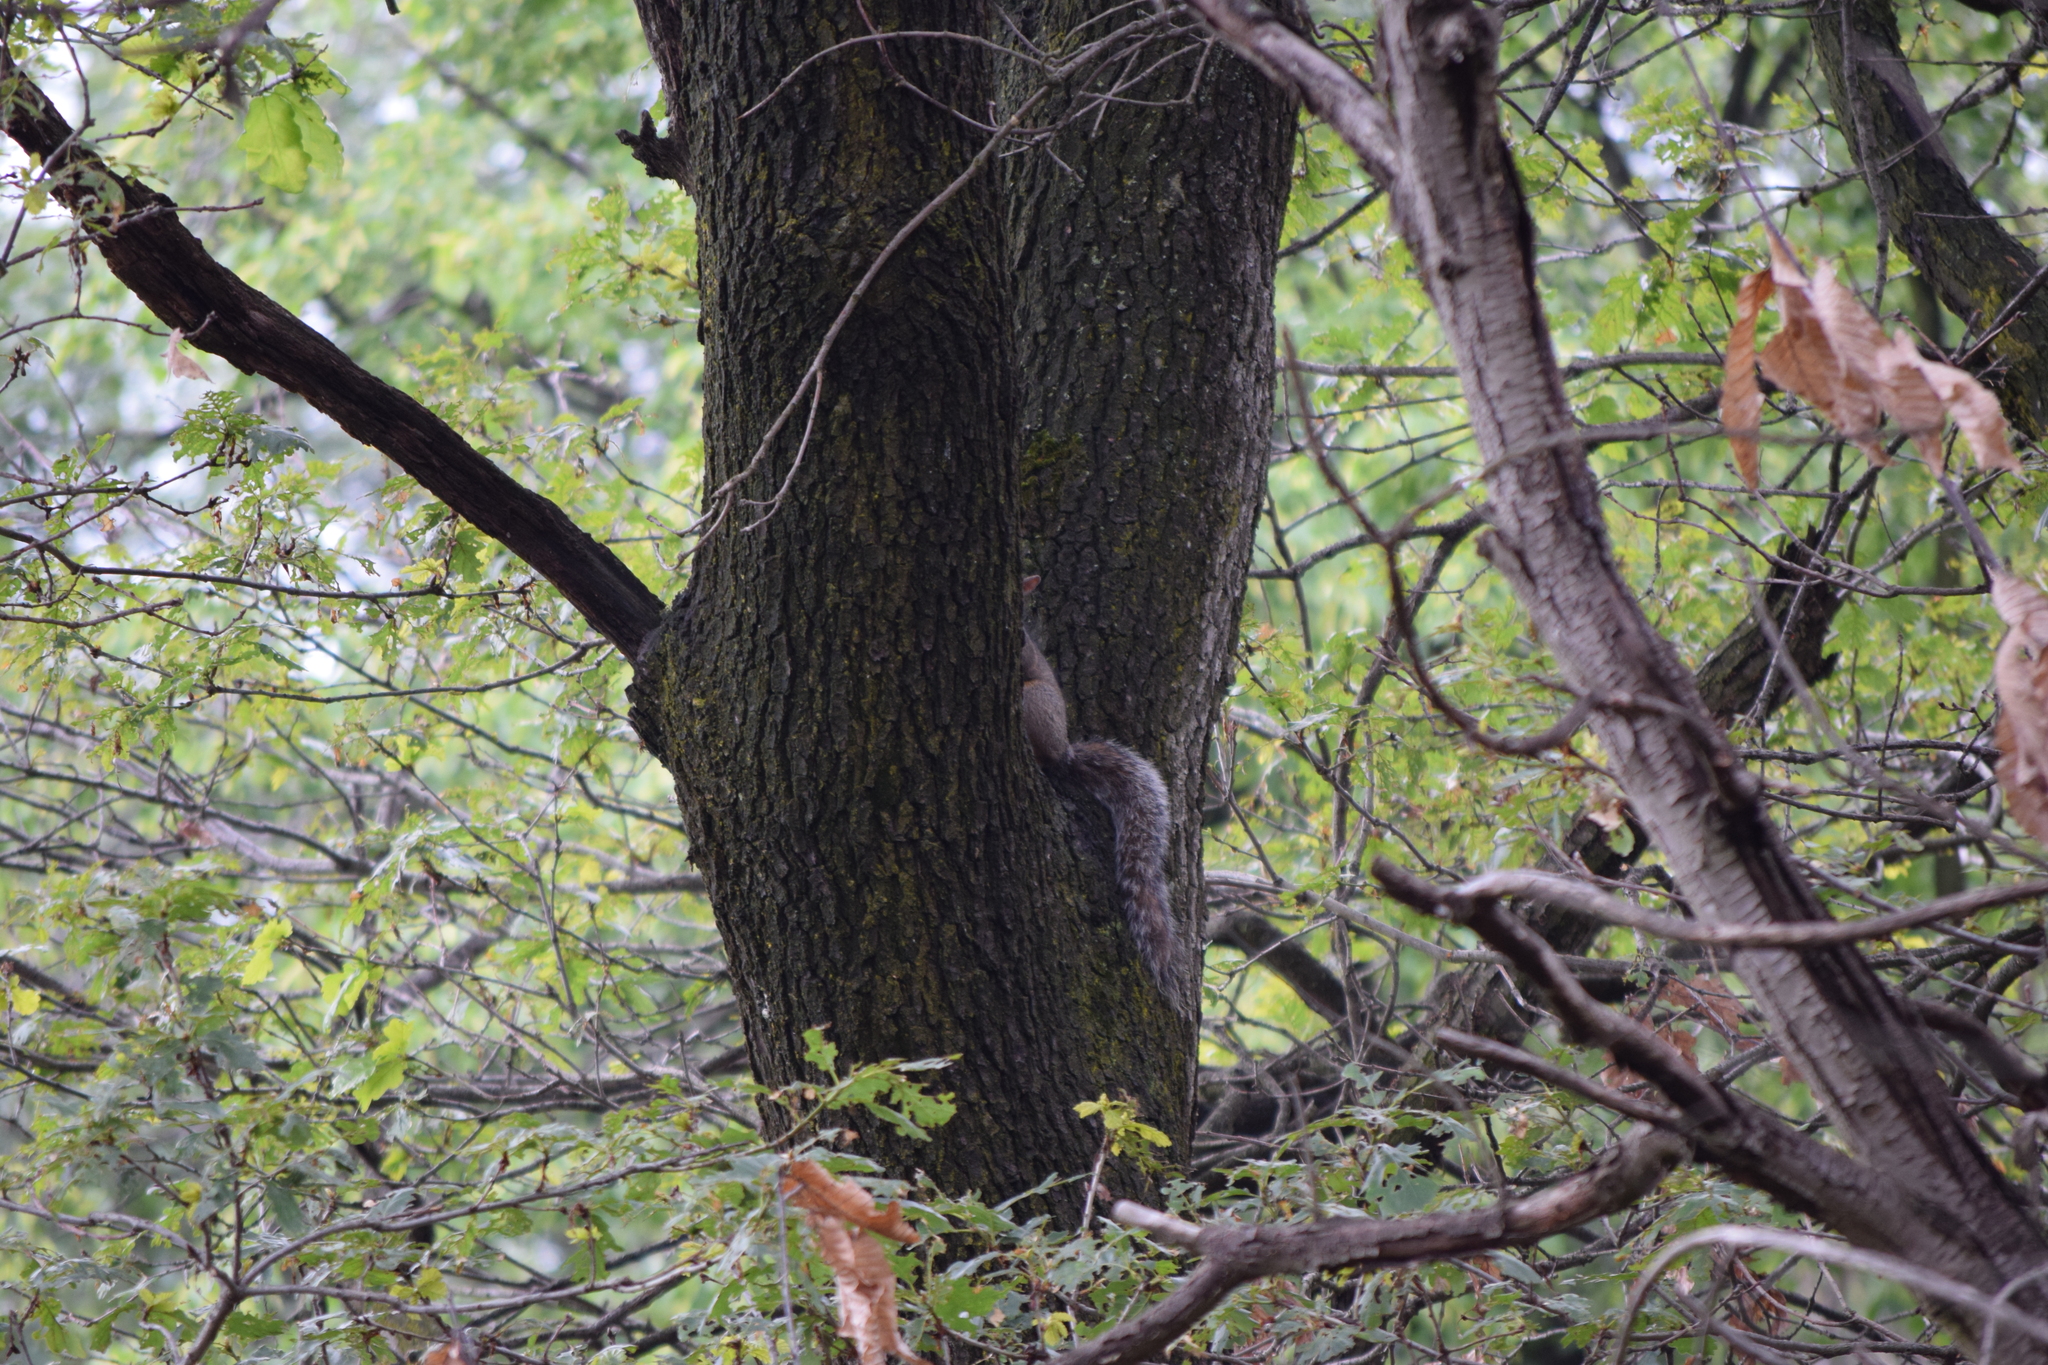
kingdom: Animalia
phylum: Chordata
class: Mammalia
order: Rodentia
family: Sciuridae
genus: Sciurus
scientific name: Sciurus carolinensis
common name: Eastern gray squirrel
